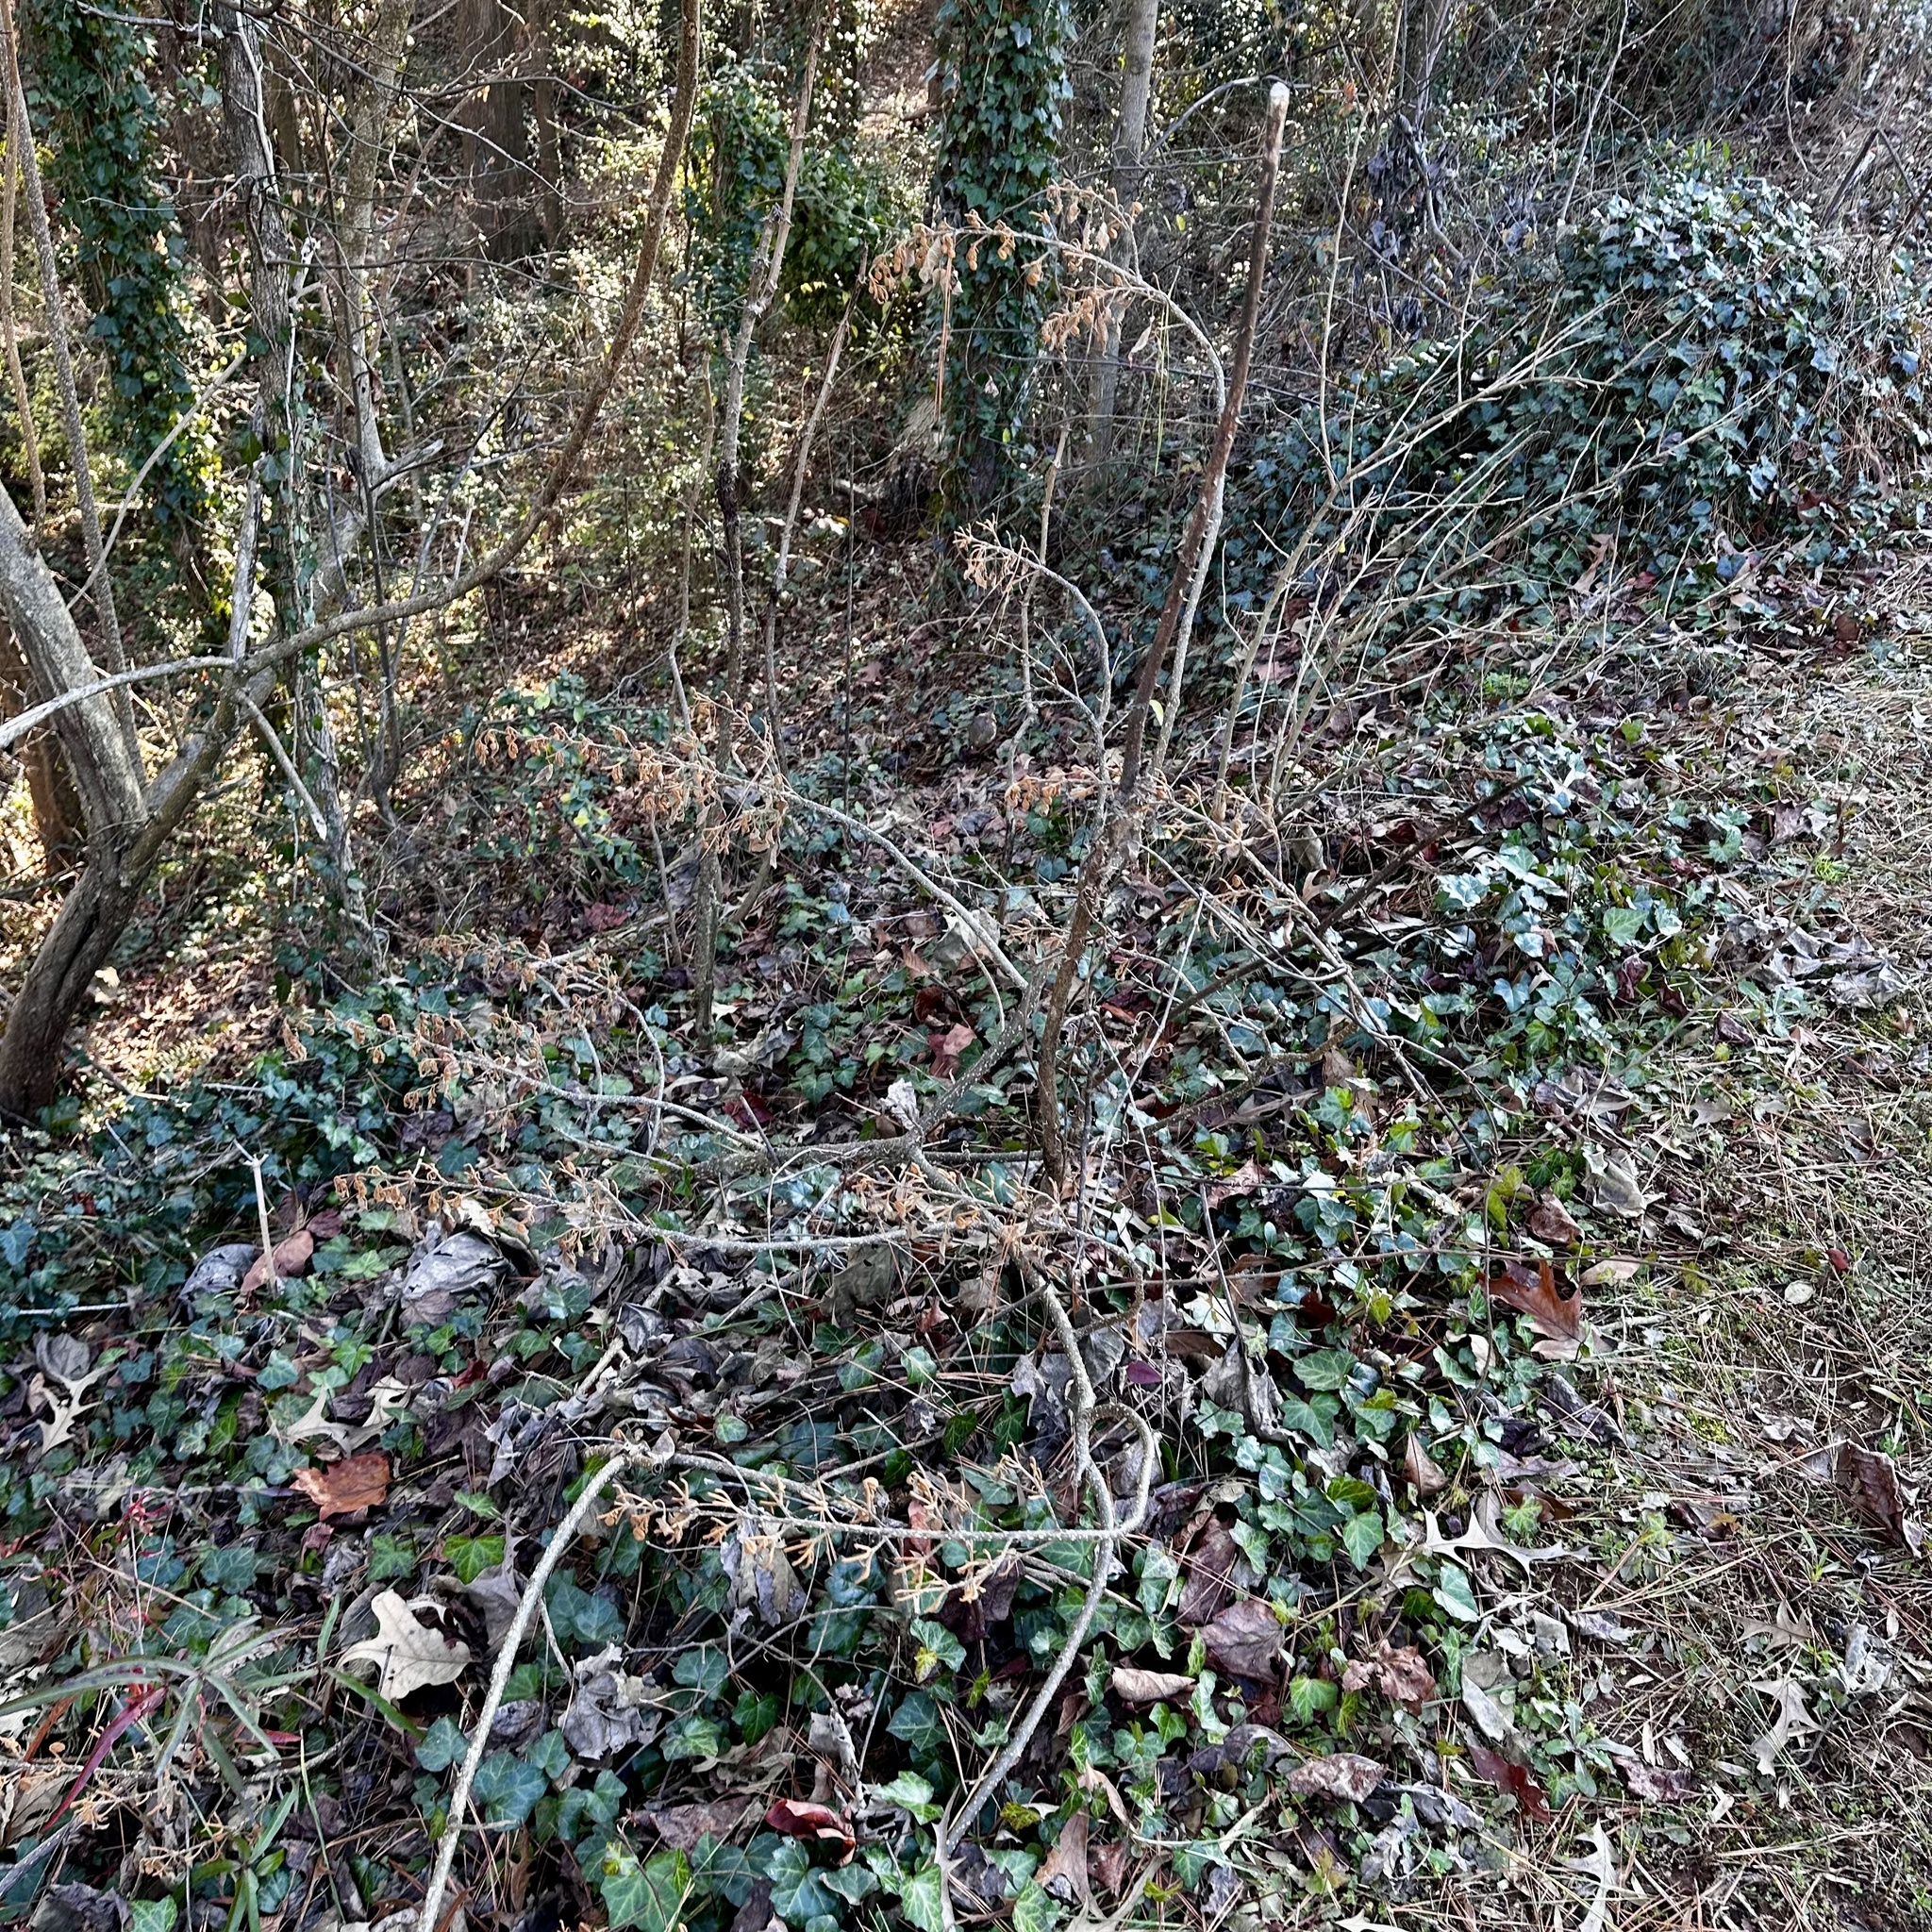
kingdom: Plantae
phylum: Tracheophyta
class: Magnoliopsida
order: Lamiales
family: Paulowniaceae
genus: Paulownia
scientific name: Paulownia tomentosa
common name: Foxglove-tree
